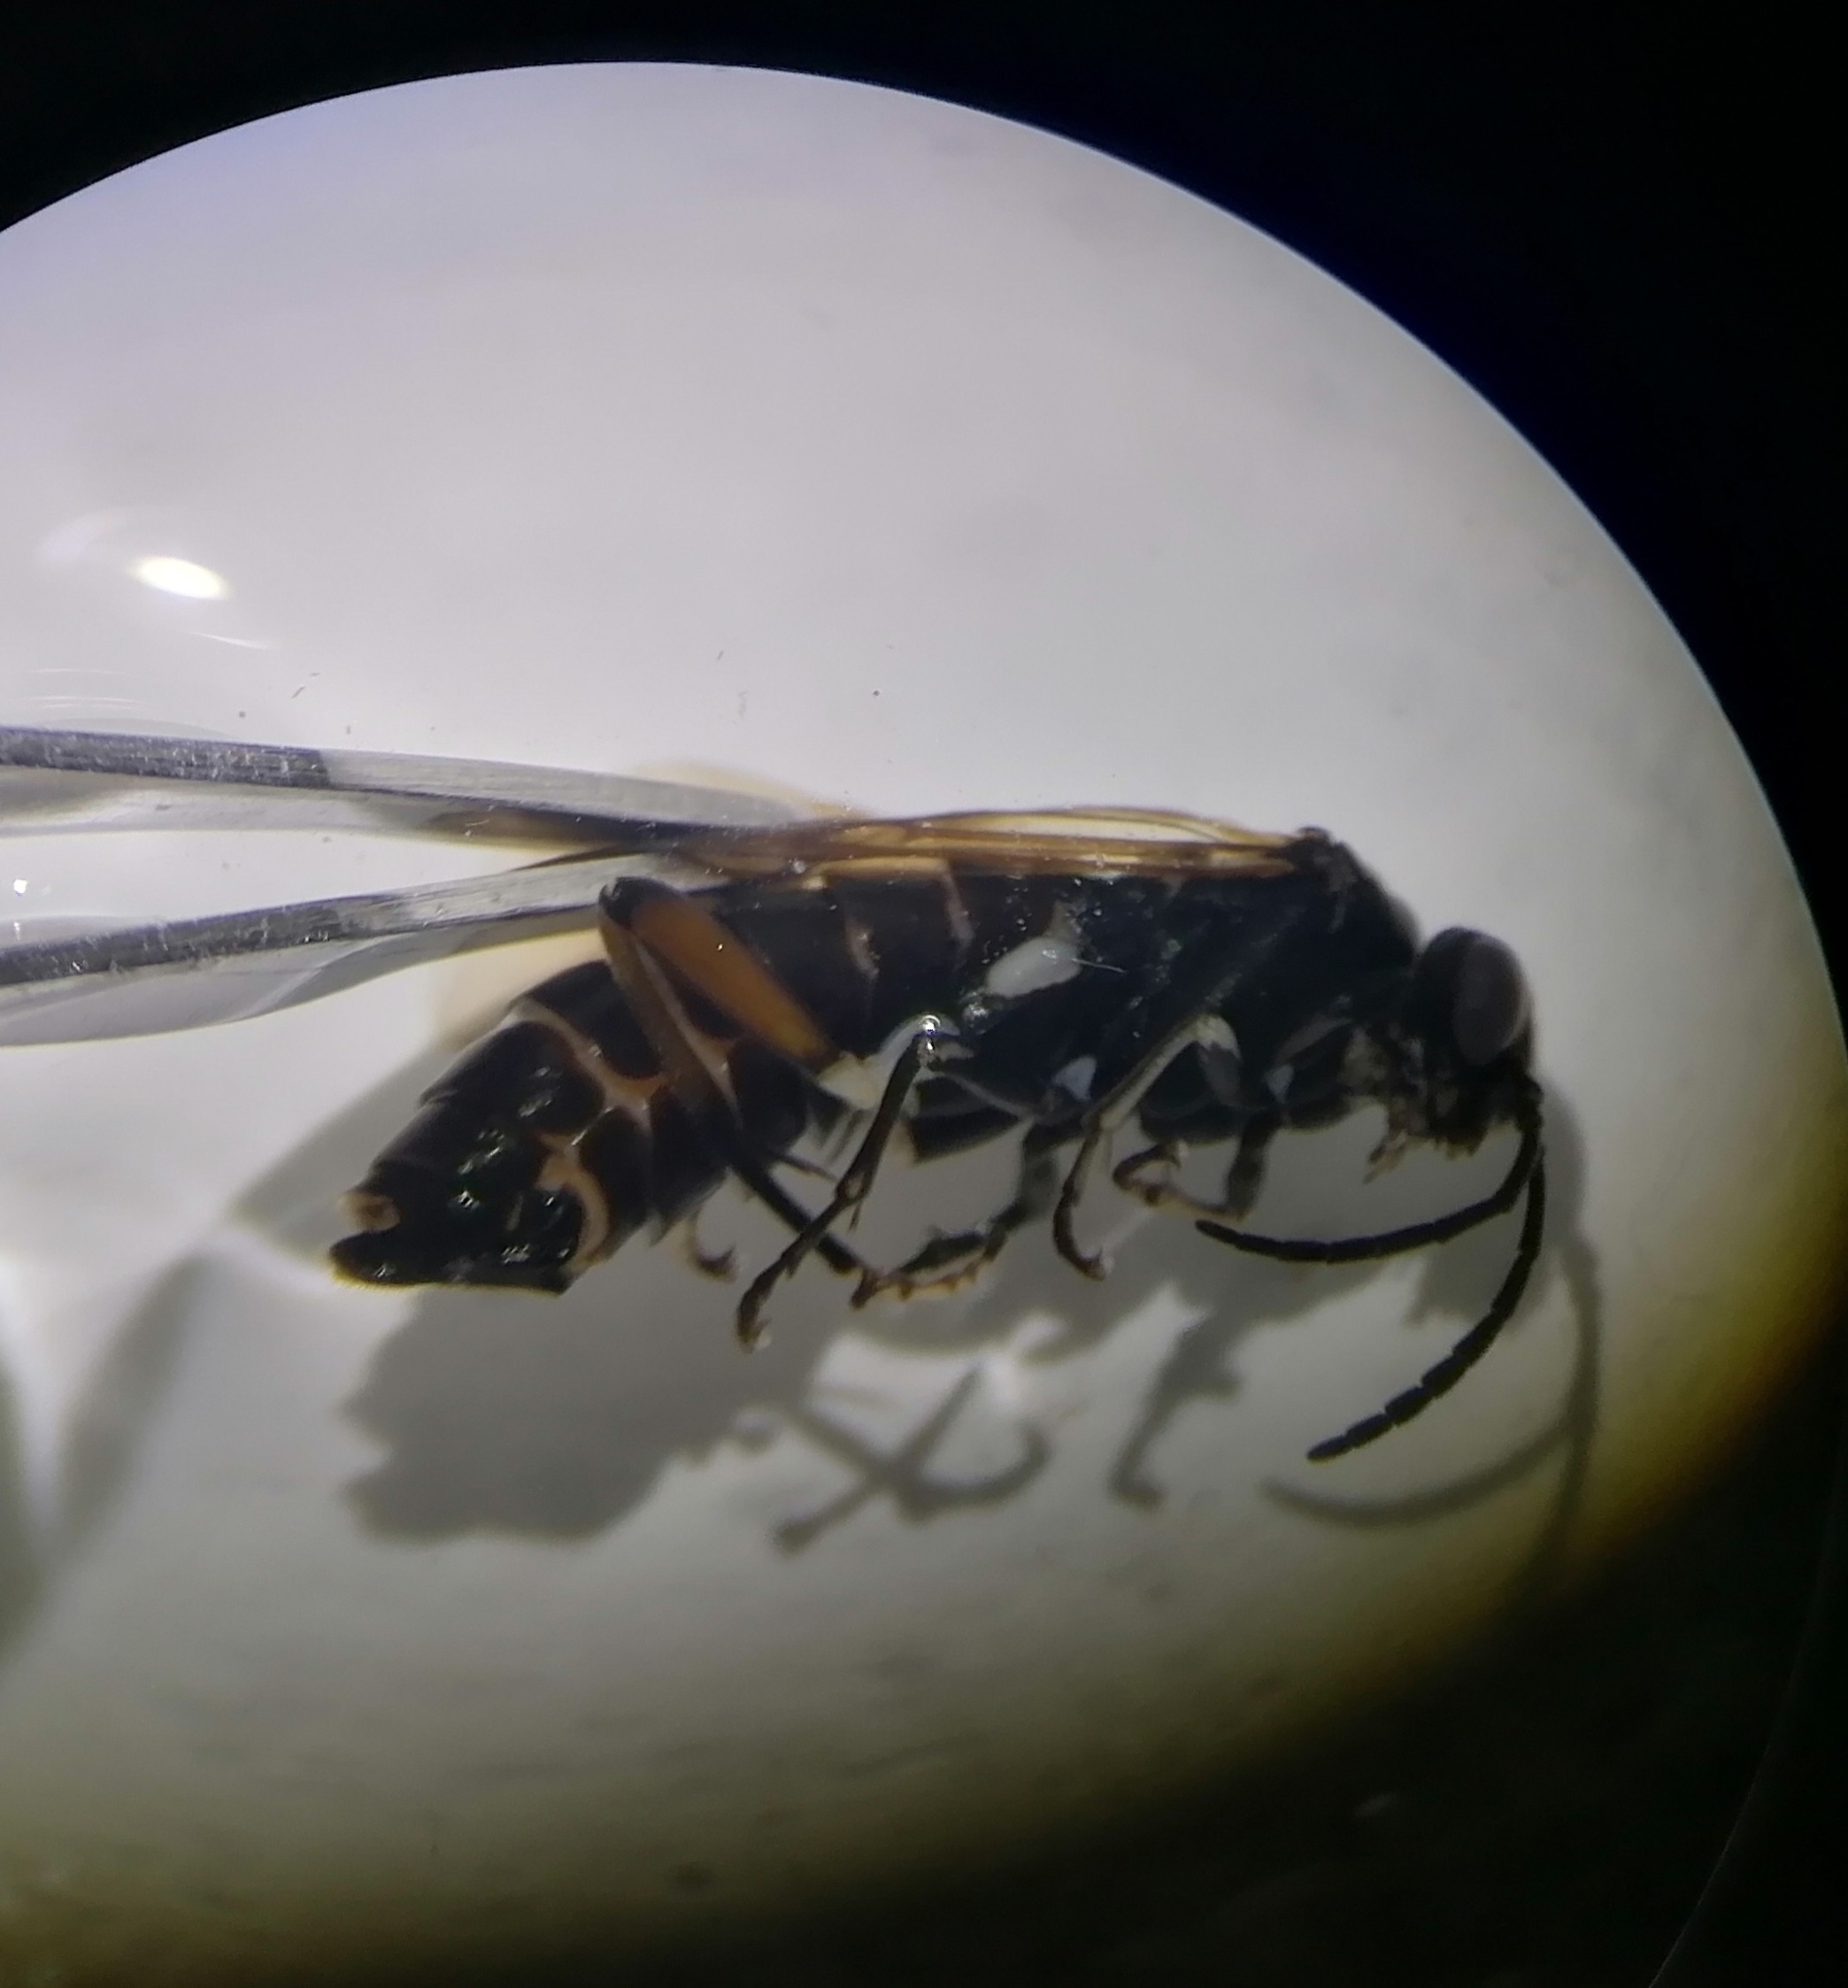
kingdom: Animalia
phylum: Arthropoda
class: Insecta
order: Hymenoptera
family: Tenthredinidae
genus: Macrophya
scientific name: Macrophya sanguinolenta
